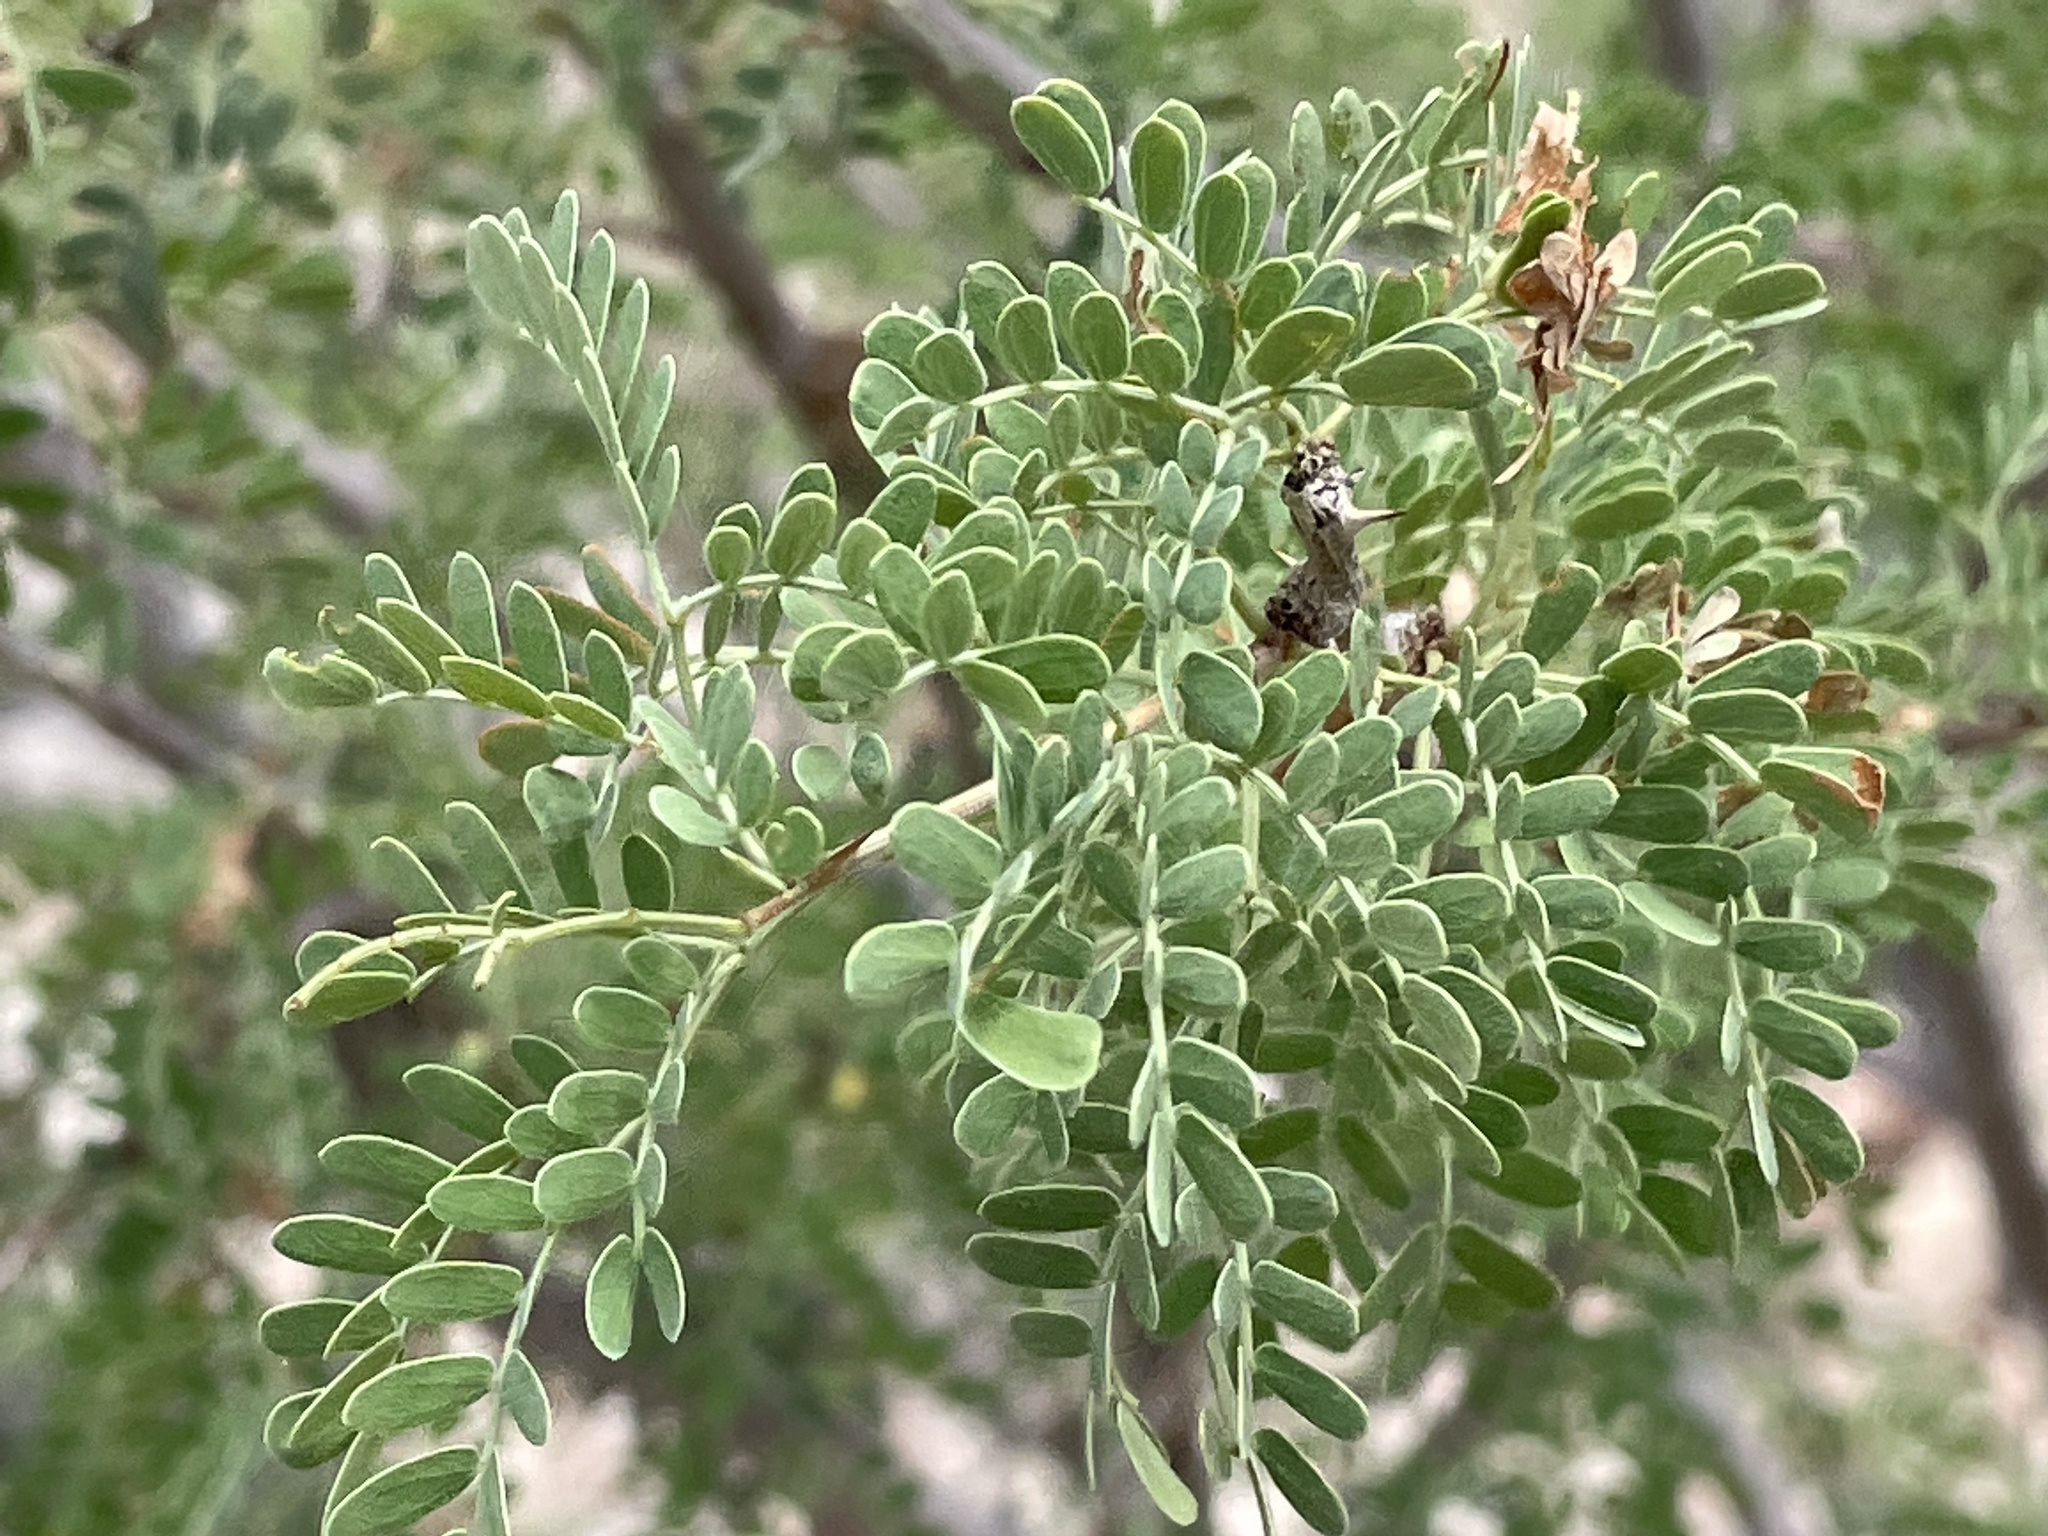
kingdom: Plantae
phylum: Tracheophyta
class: Magnoliopsida
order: Fabales
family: Fabaceae
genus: Senegalia
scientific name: Senegalia greggii
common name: Texas-mimosa
